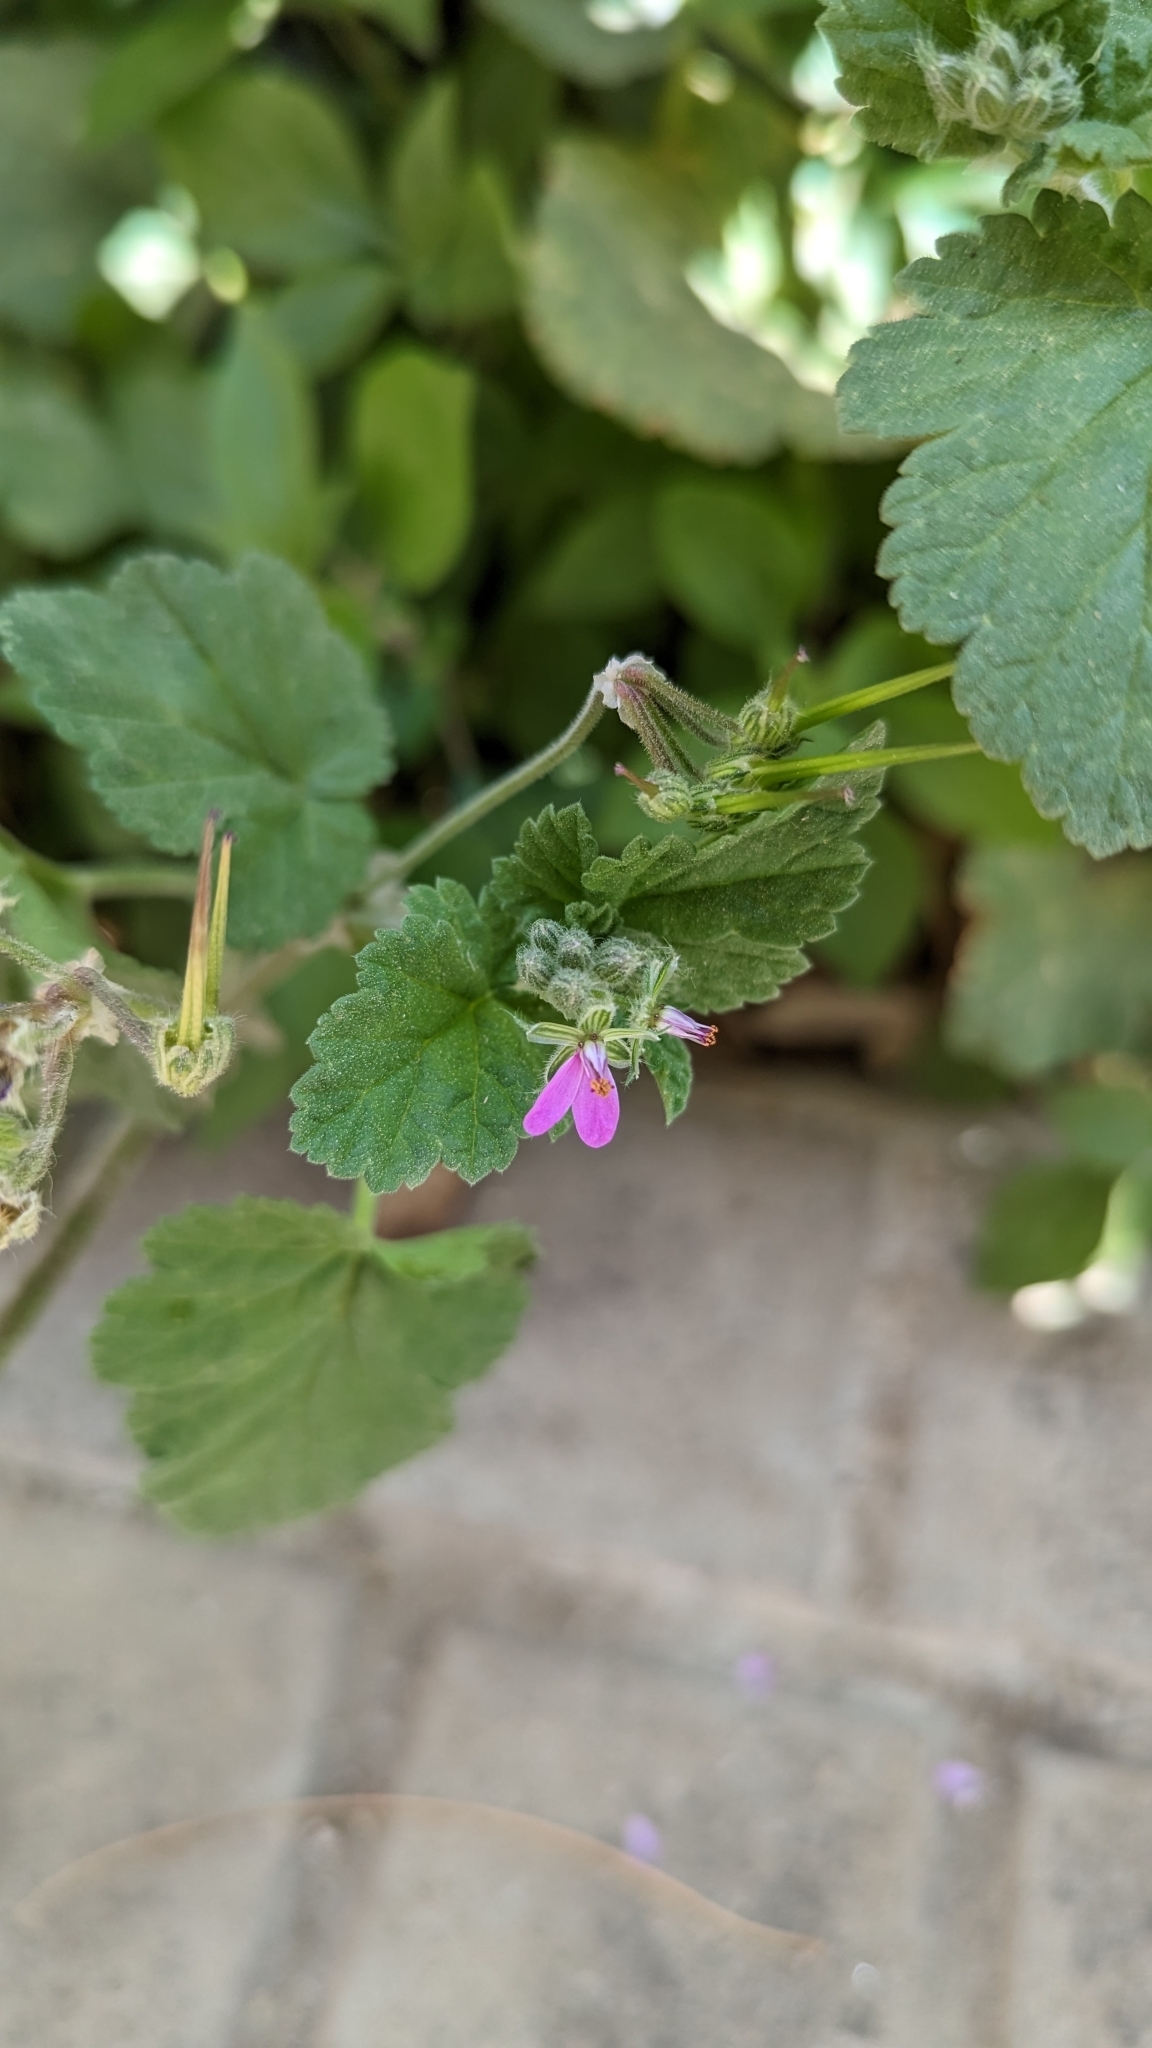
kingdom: Plantae
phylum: Tracheophyta
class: Magnoliopsida
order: Geraniales
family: Geraniaceae
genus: Erodium
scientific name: Erodium malacoides
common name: Soft stork's-bill
